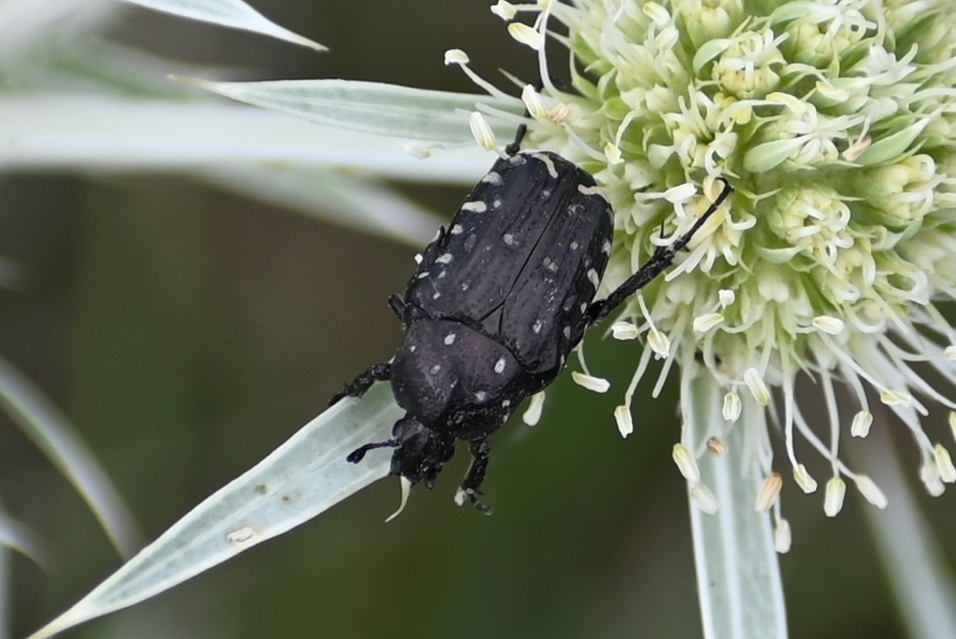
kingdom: Animalia
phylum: Arthropoda
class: Insecta
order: Coleoptera
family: Scarabaeidae
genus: Oxythyrea
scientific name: Oxythyrea funesta
